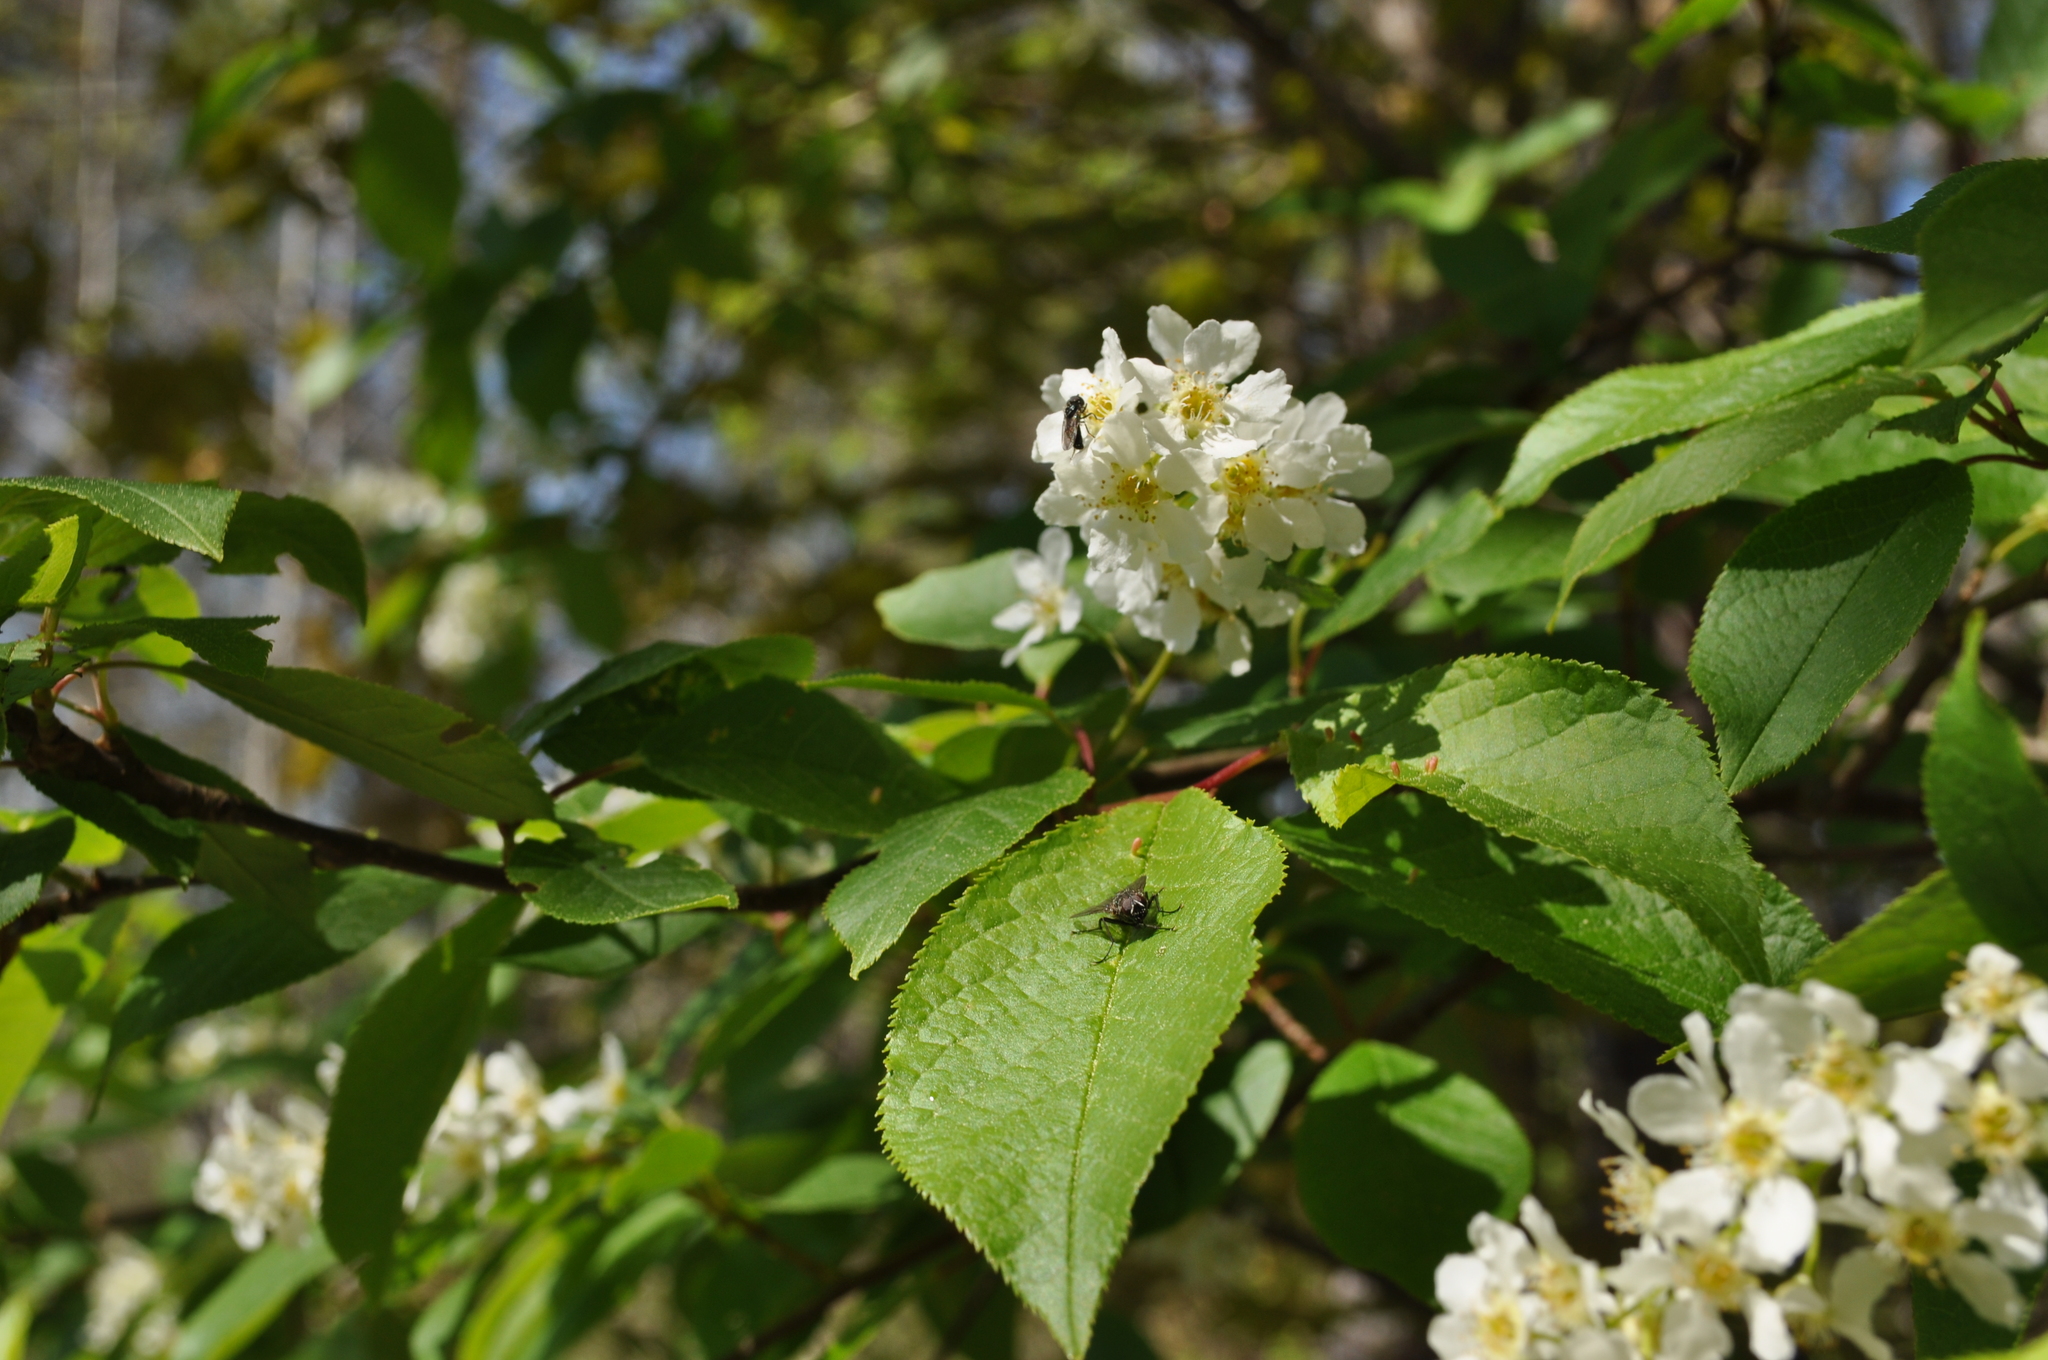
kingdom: Plantae
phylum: Tracheophyta
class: Magnoliopsida
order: Rosales
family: Rosaceae
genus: Prunus
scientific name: Prunus padus
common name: Bird cherry
